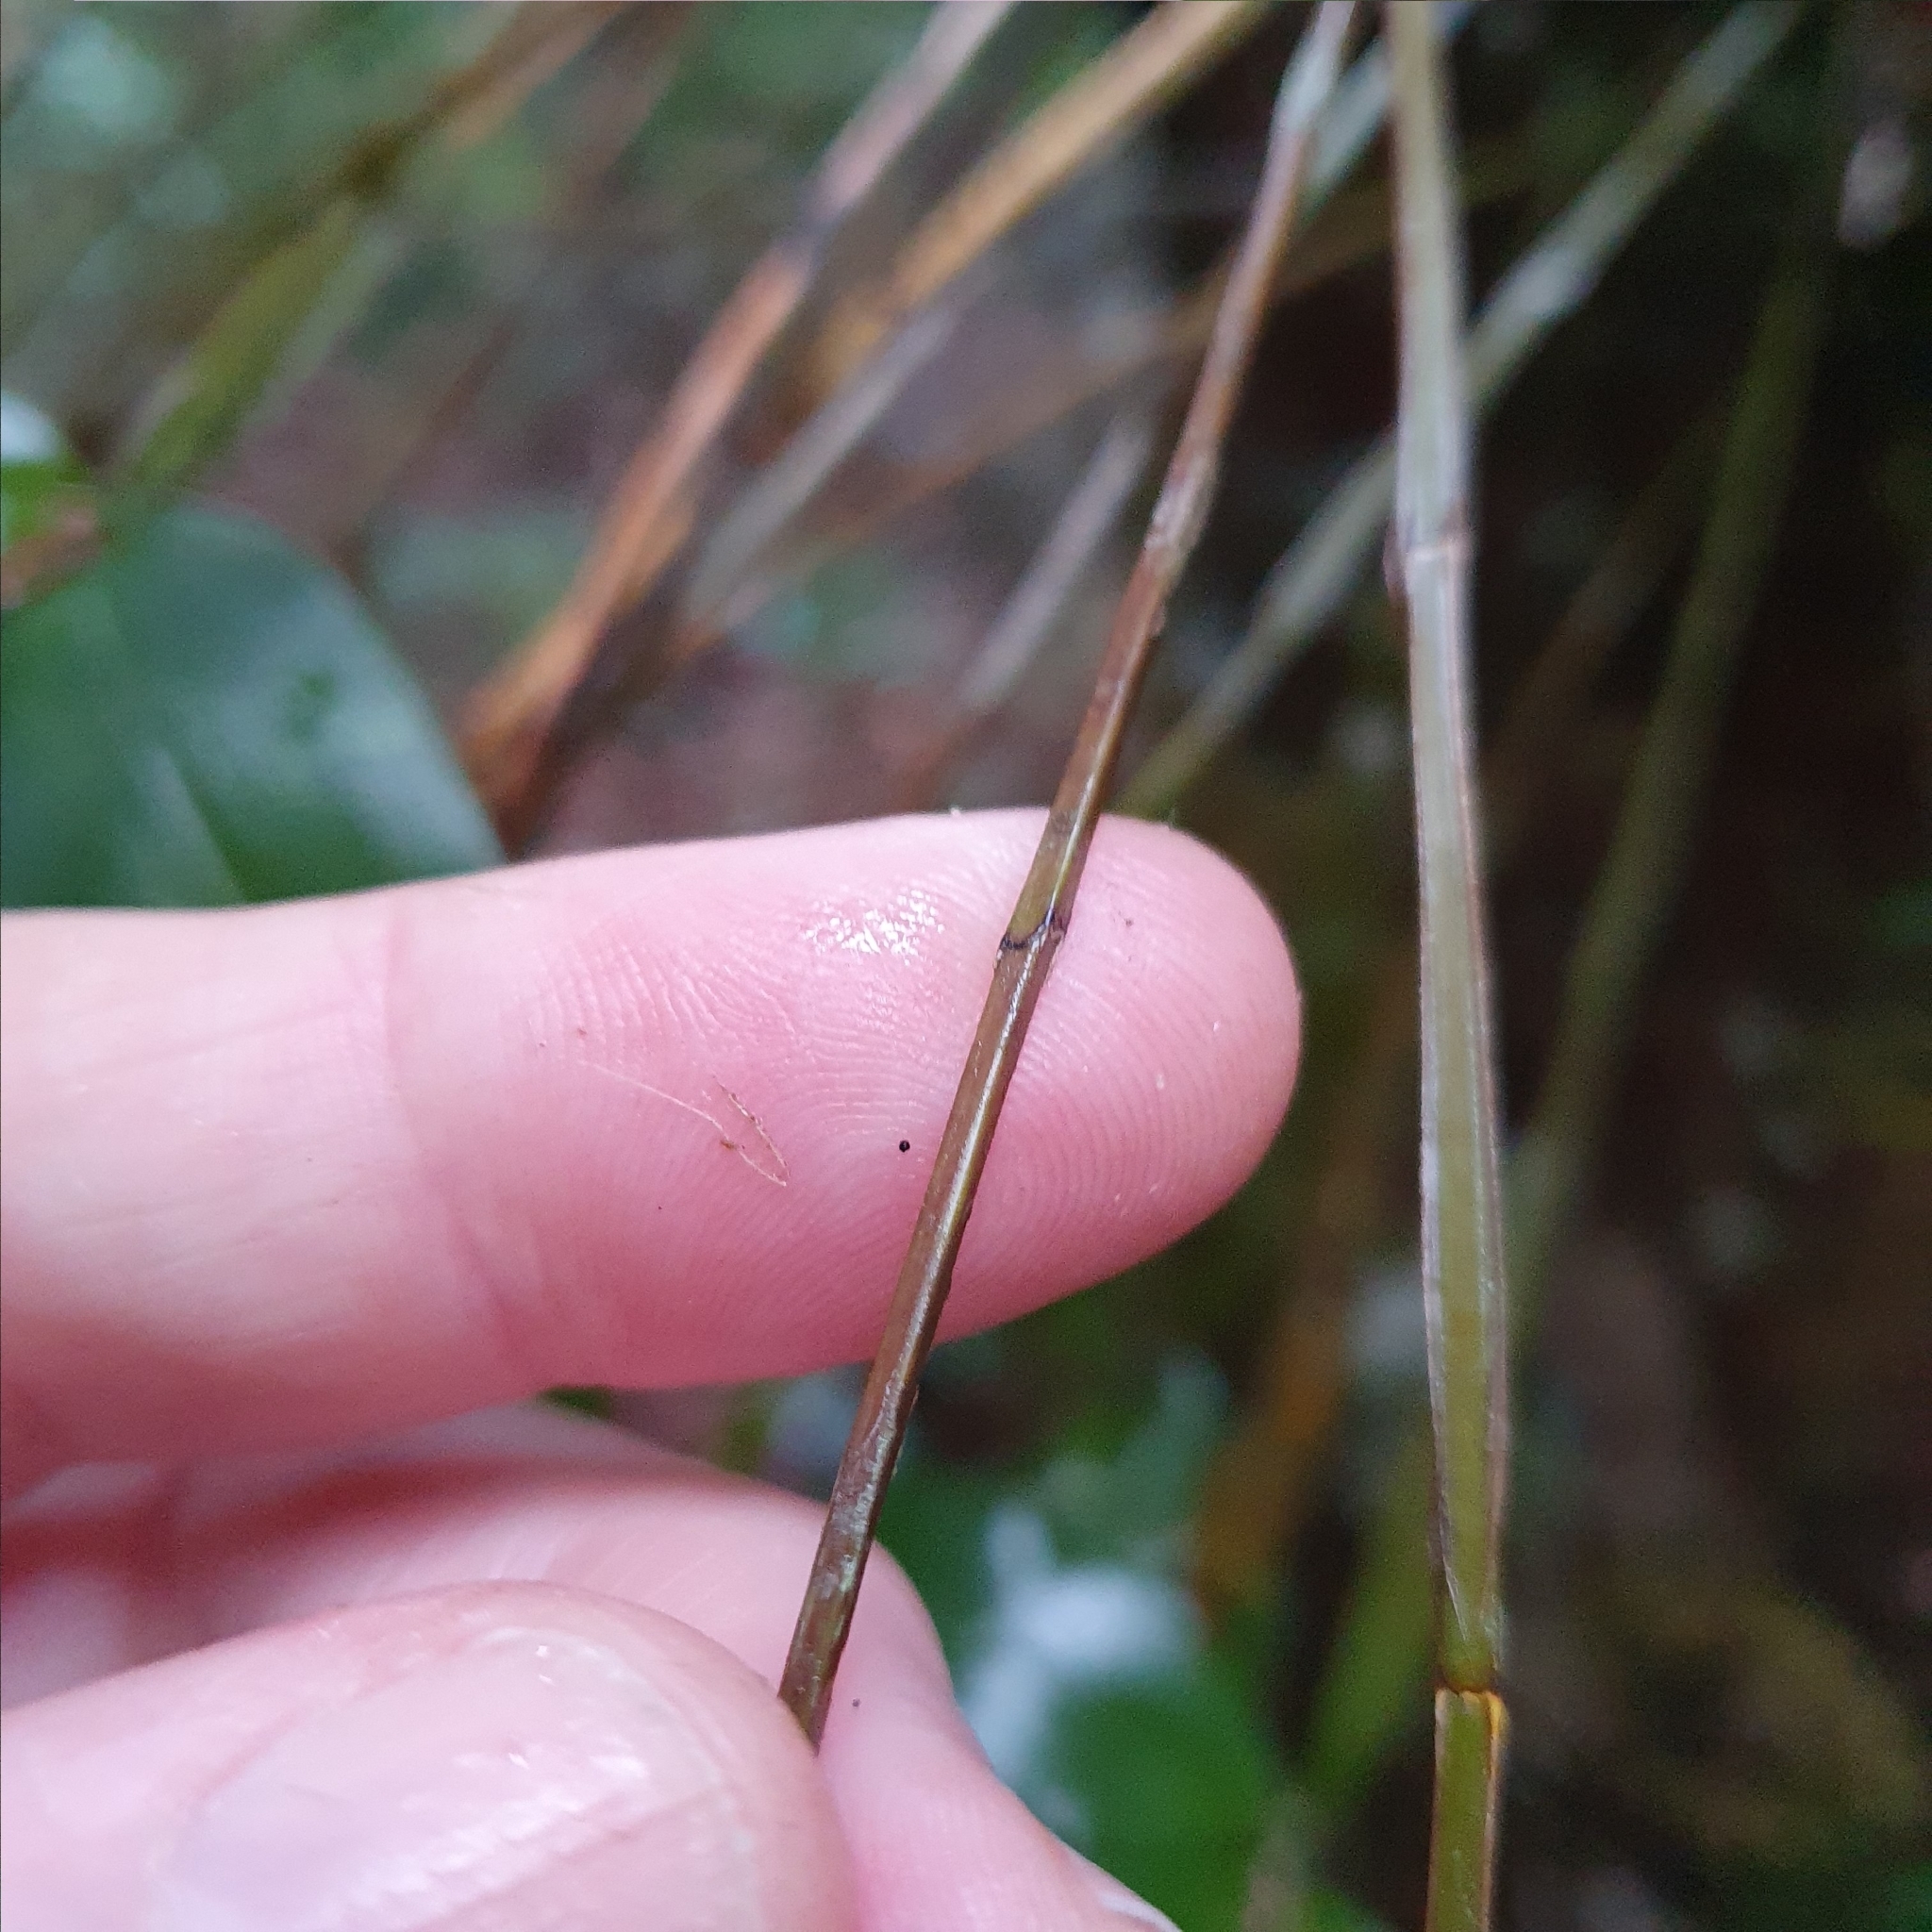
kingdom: Plantae
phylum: Tracheophyta
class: Liliopsida
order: Asparagales
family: Orchidaceae
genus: Dendrobium
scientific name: Dendrobium tetragonum
